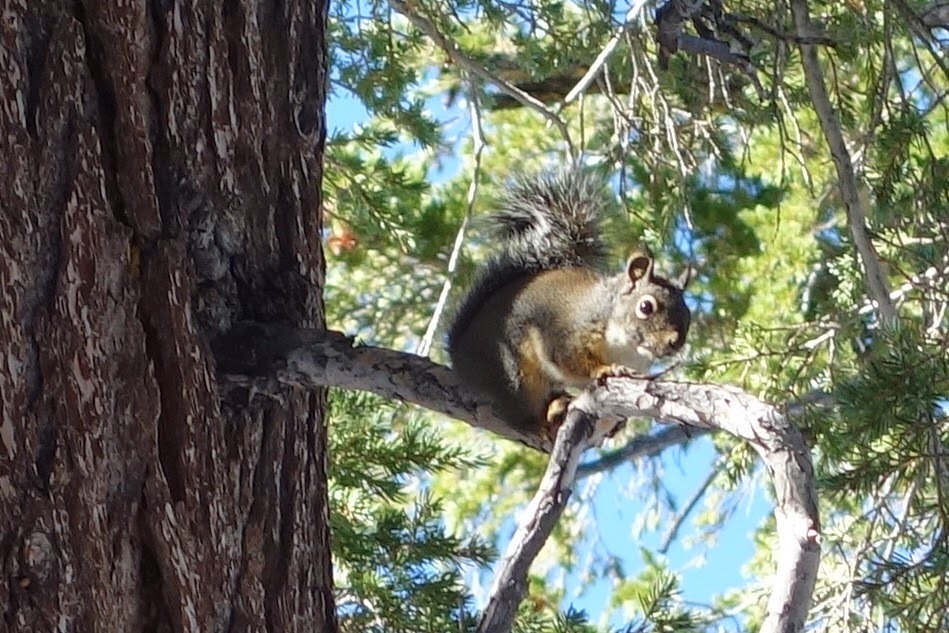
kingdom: Animalia
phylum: Chordata
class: Mammalia
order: Rodentia
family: Sciuridae
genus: Tamiasciurus
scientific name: Tamiasciurus douglasii
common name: Douglas's squirrel
